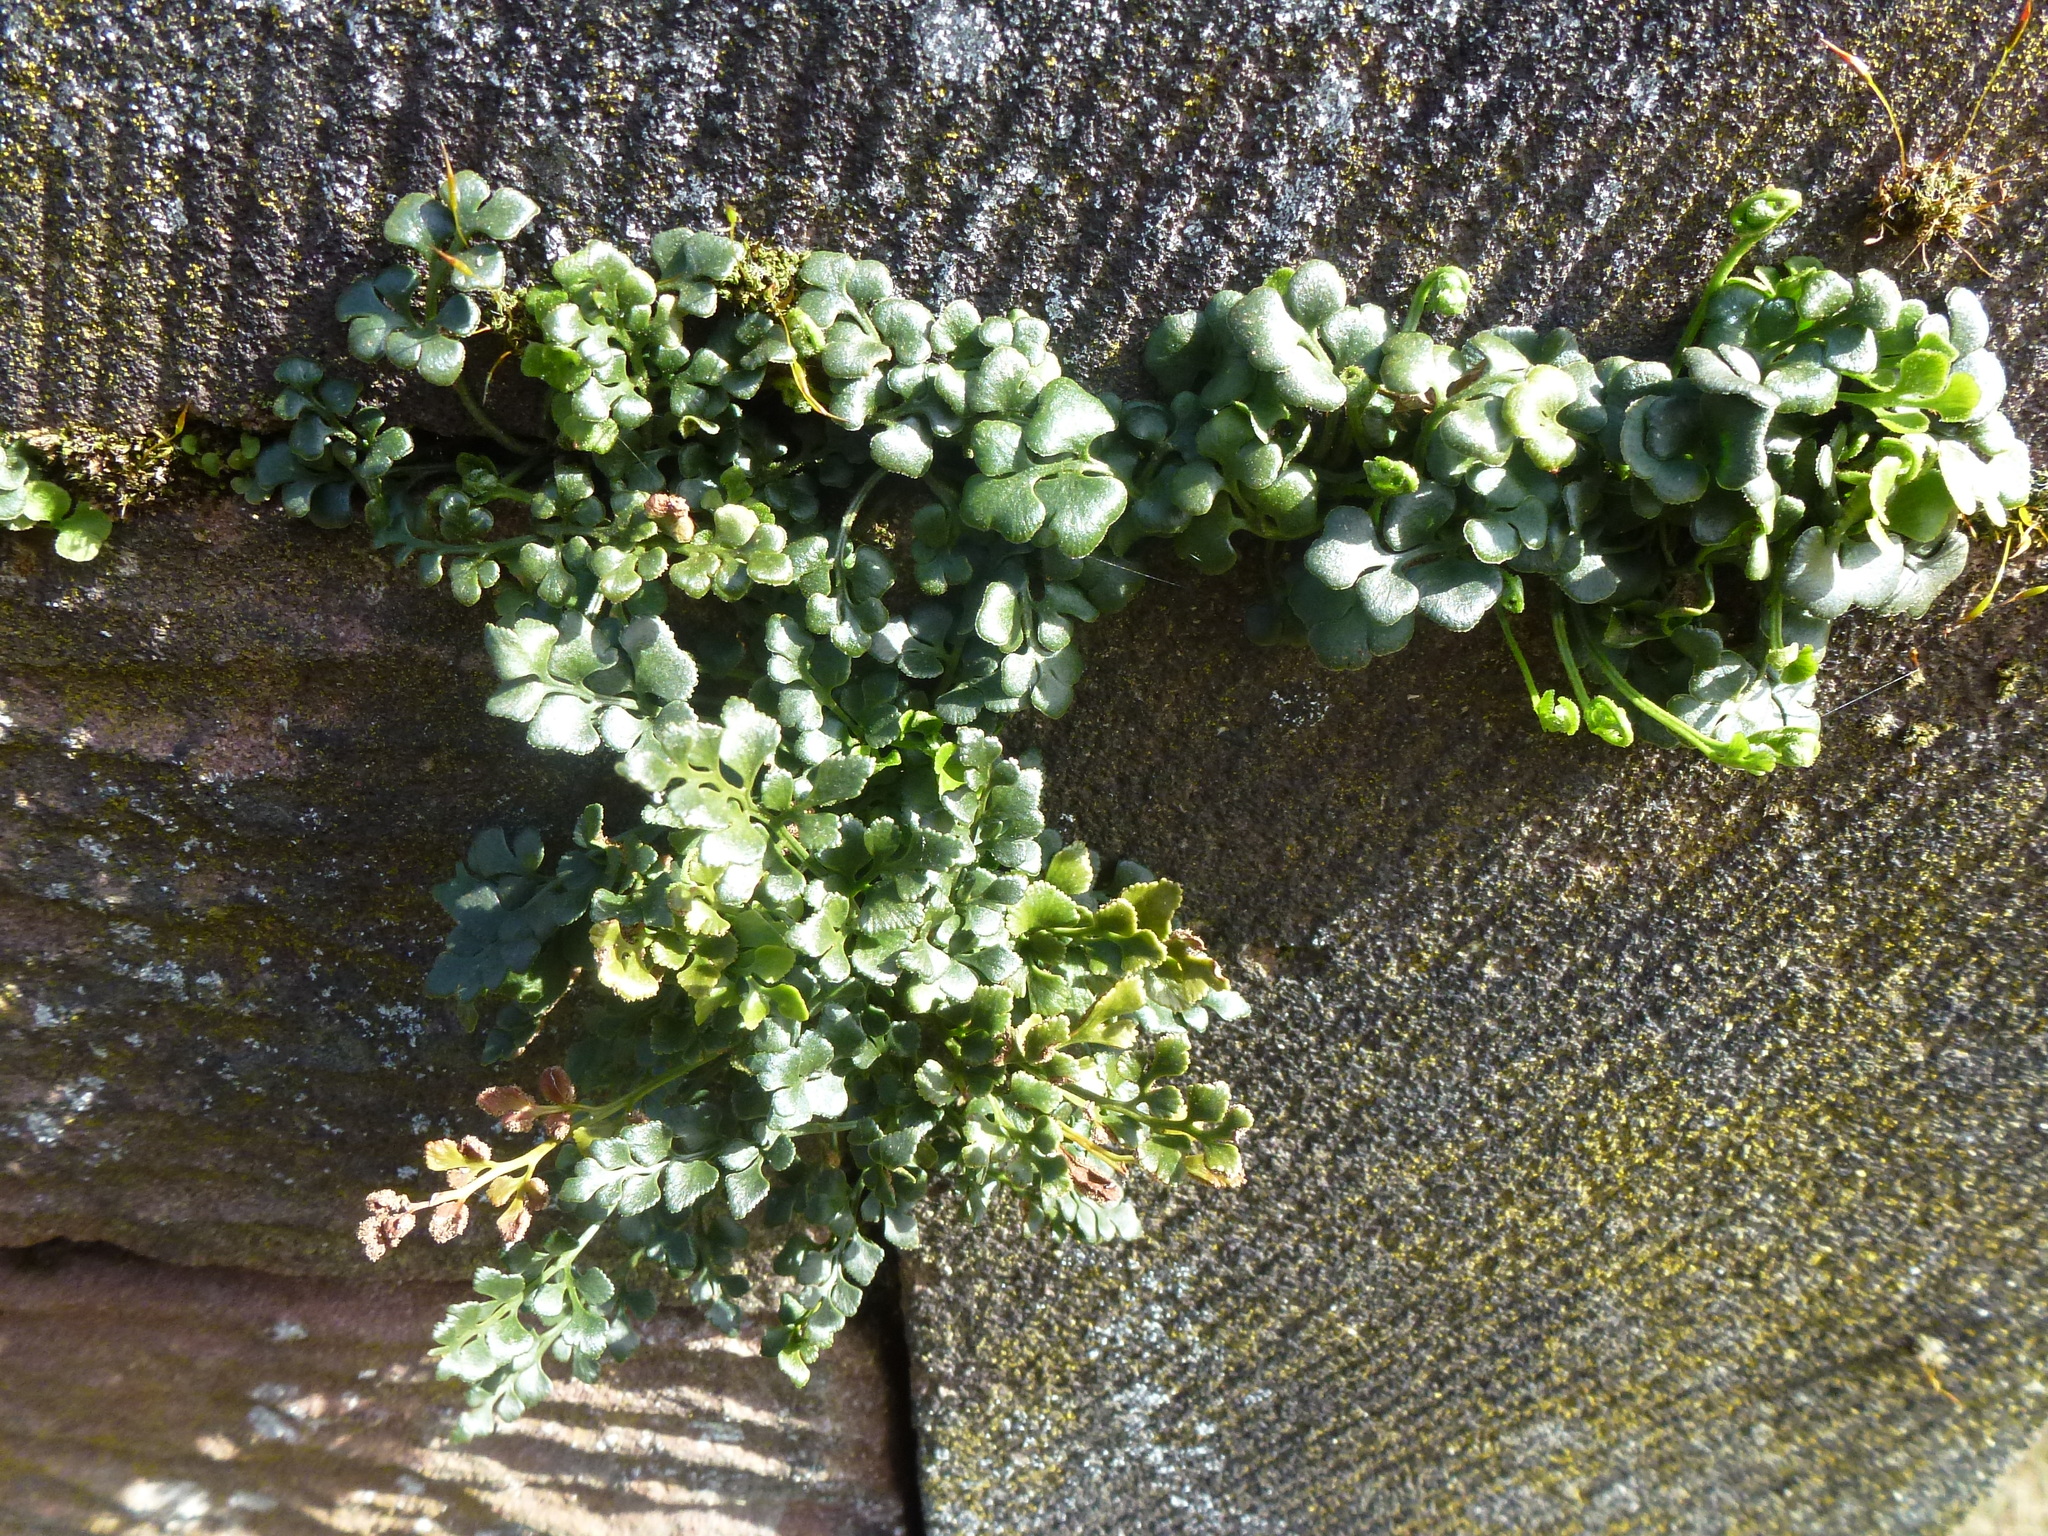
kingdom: Plantae
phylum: Tracheophyta
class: Polypodiopsida
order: Polypodiales
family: Aspleniaceae
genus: Asplenium
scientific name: Asplenium ruta-muraria
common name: Wall-rue
